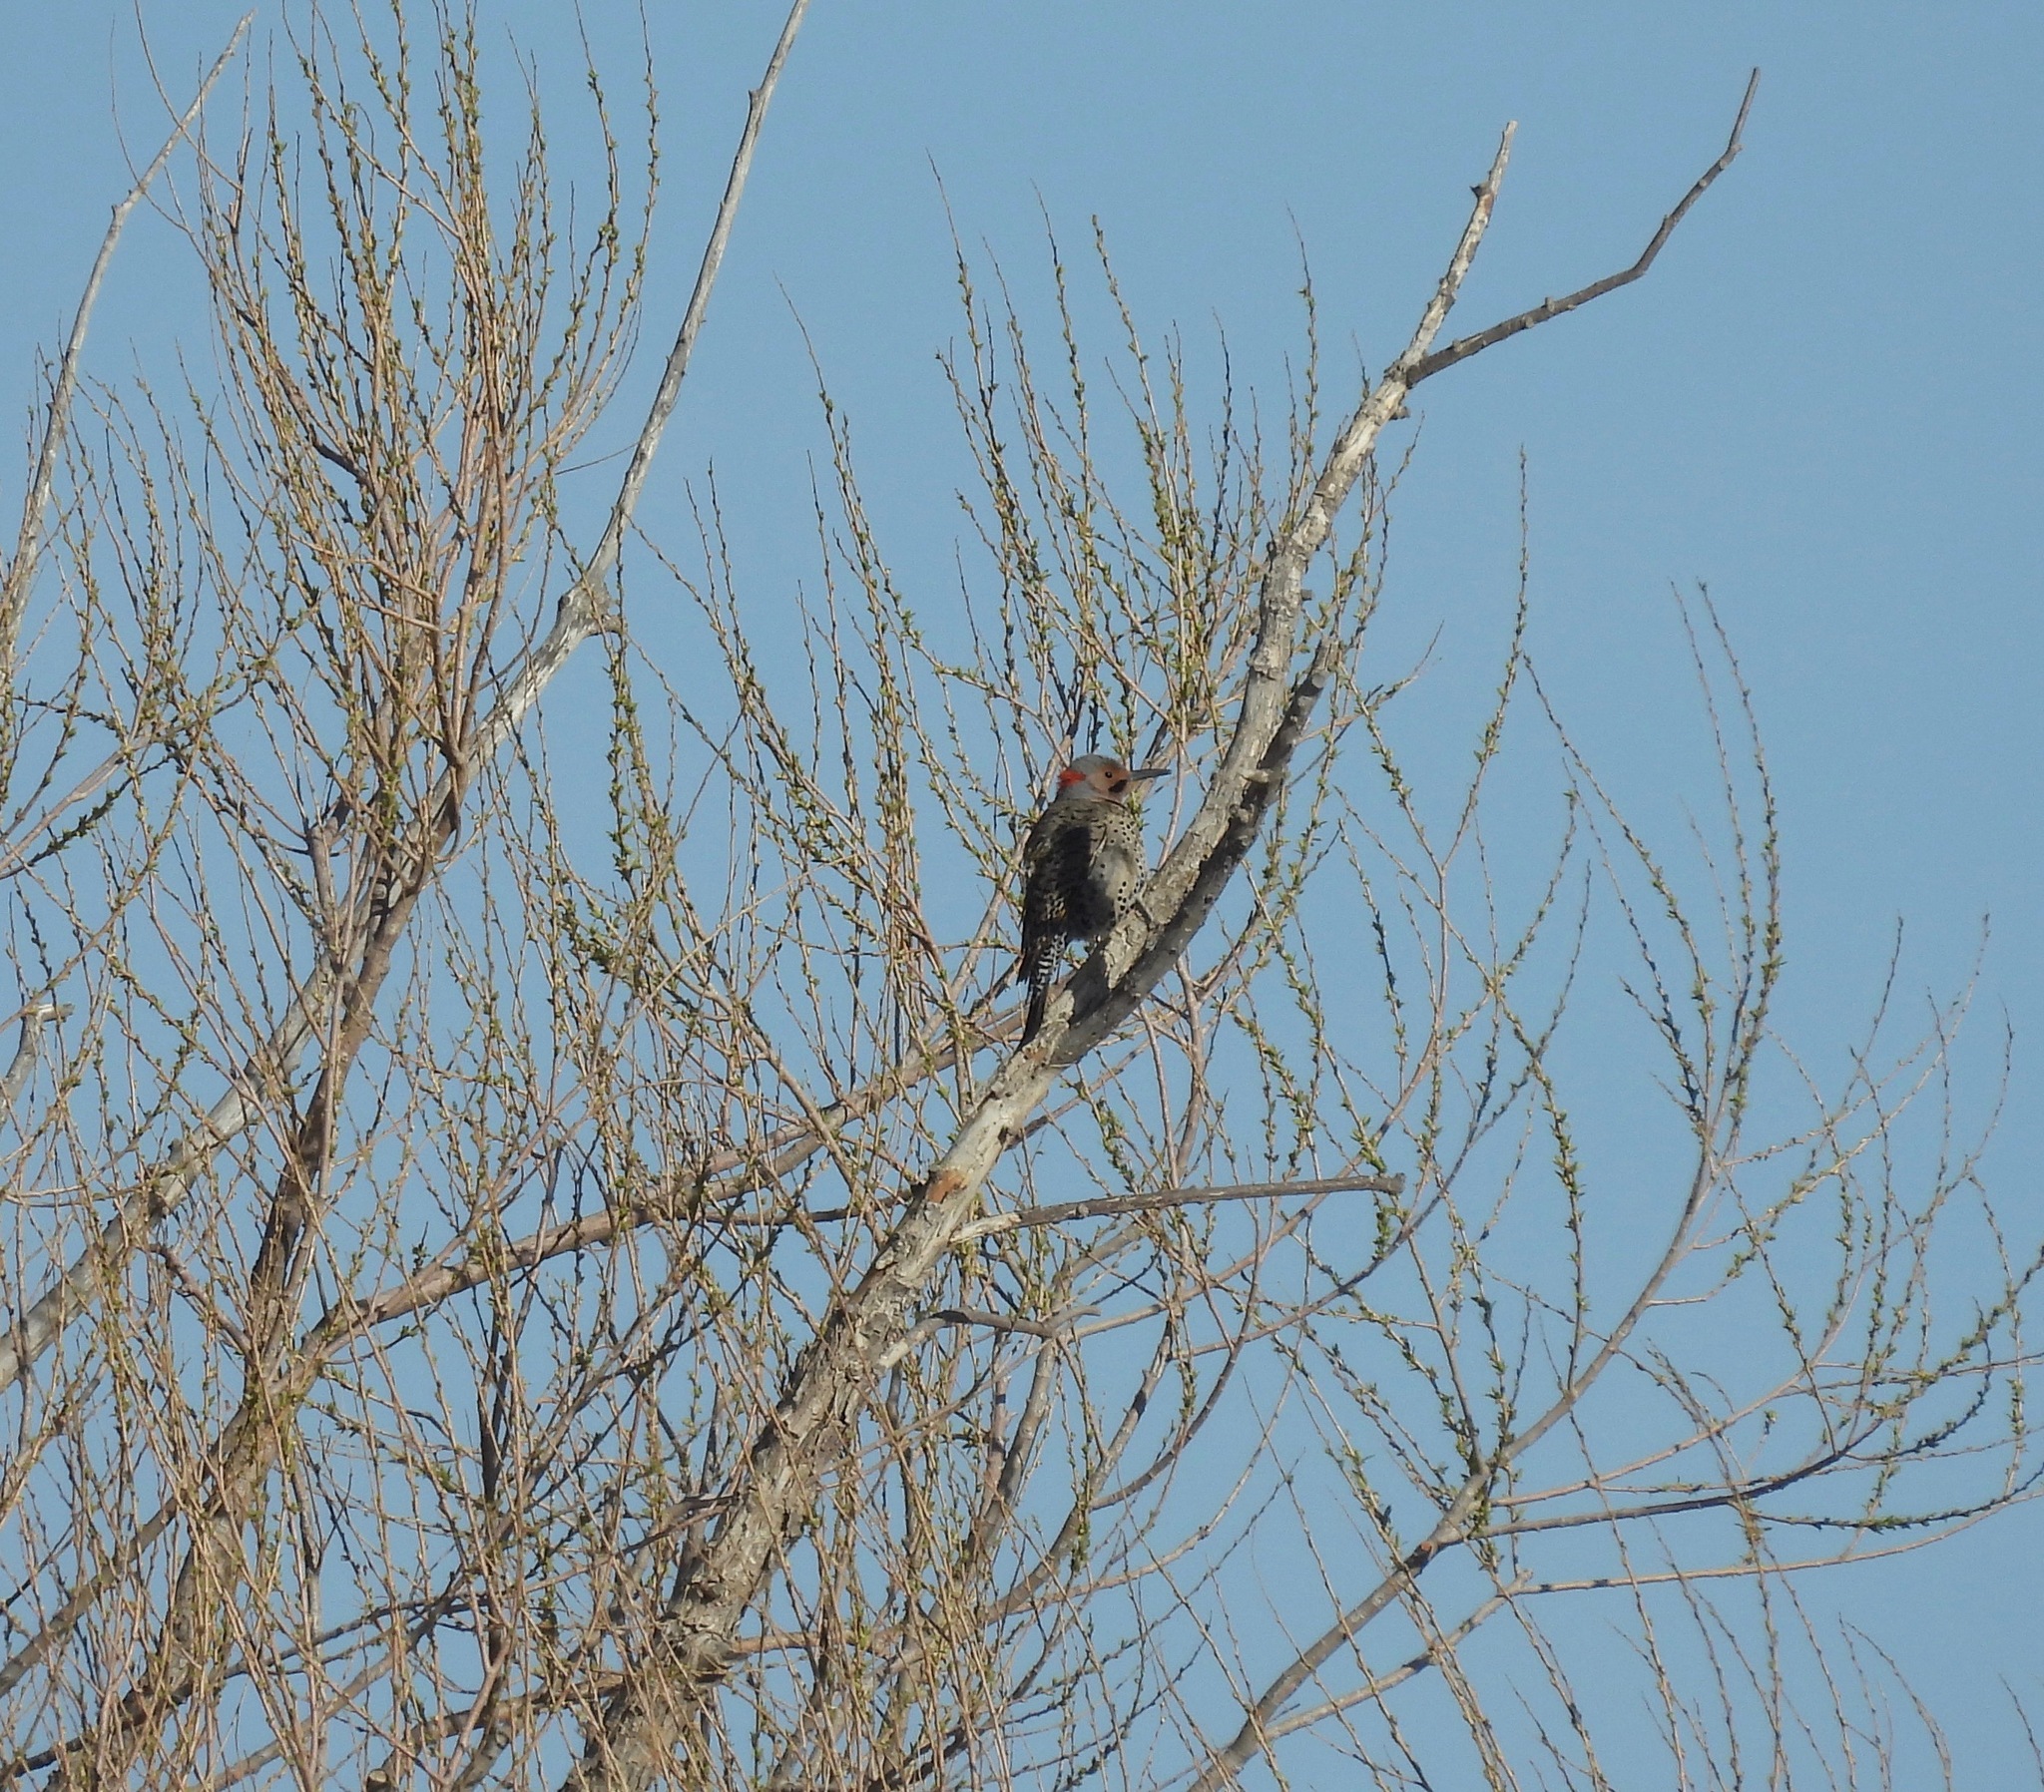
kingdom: Animalia
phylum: Chordata
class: Aves
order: Piciformes
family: Picidae
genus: Colaptes
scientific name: Colaptes auratus
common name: Northern flicker
